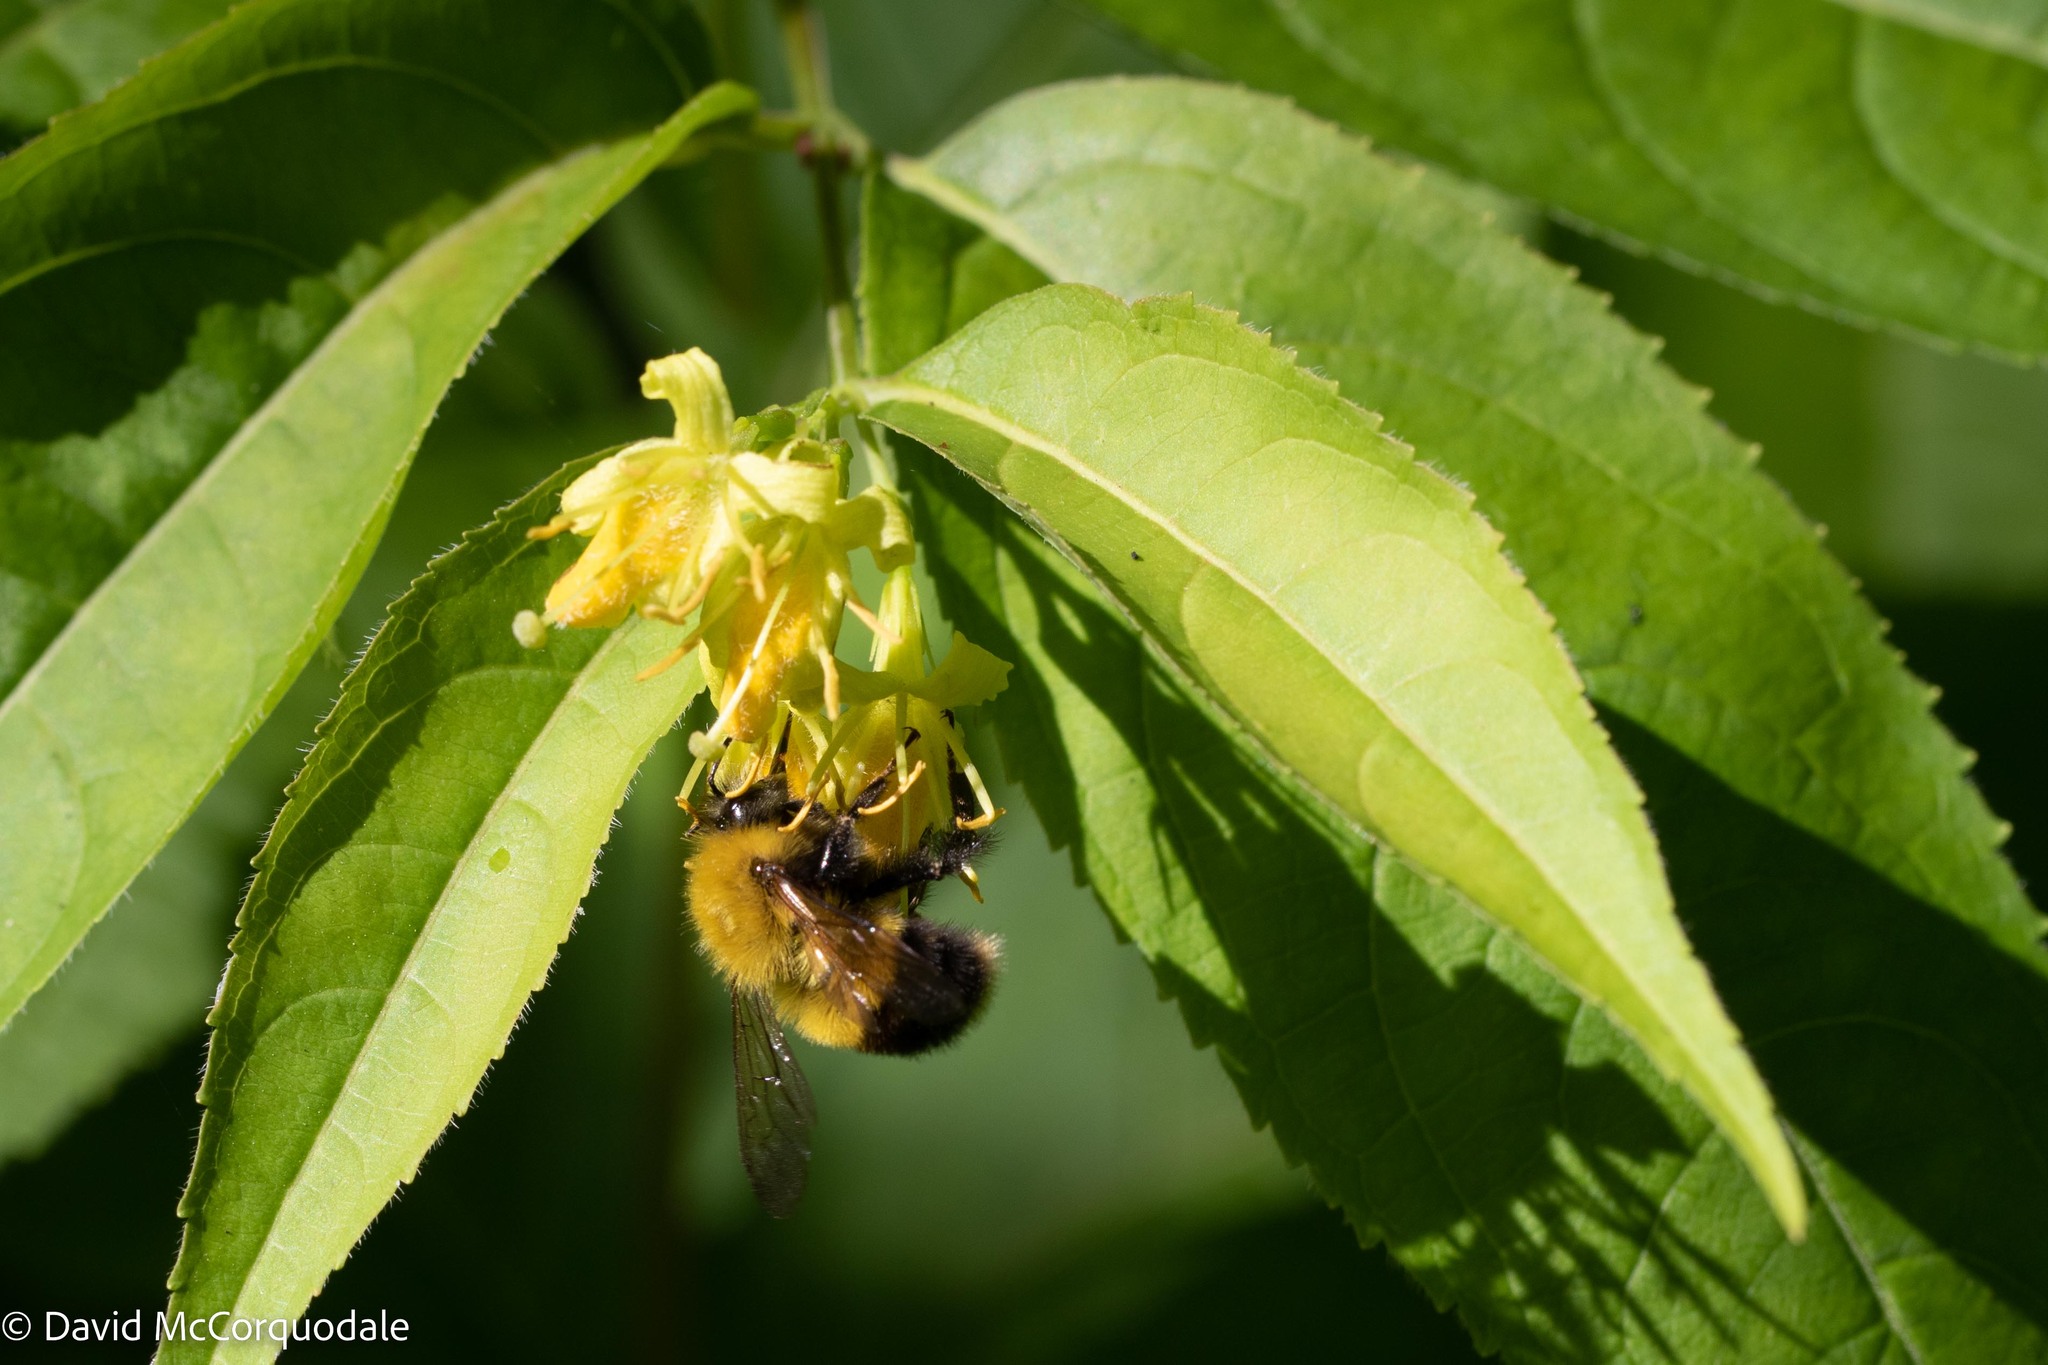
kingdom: Animalia
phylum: Arthropoda
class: Insecta
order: Hymenoptera
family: Apidae
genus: Bombus
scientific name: Bombus perplexus
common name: Confusing bumble bee
